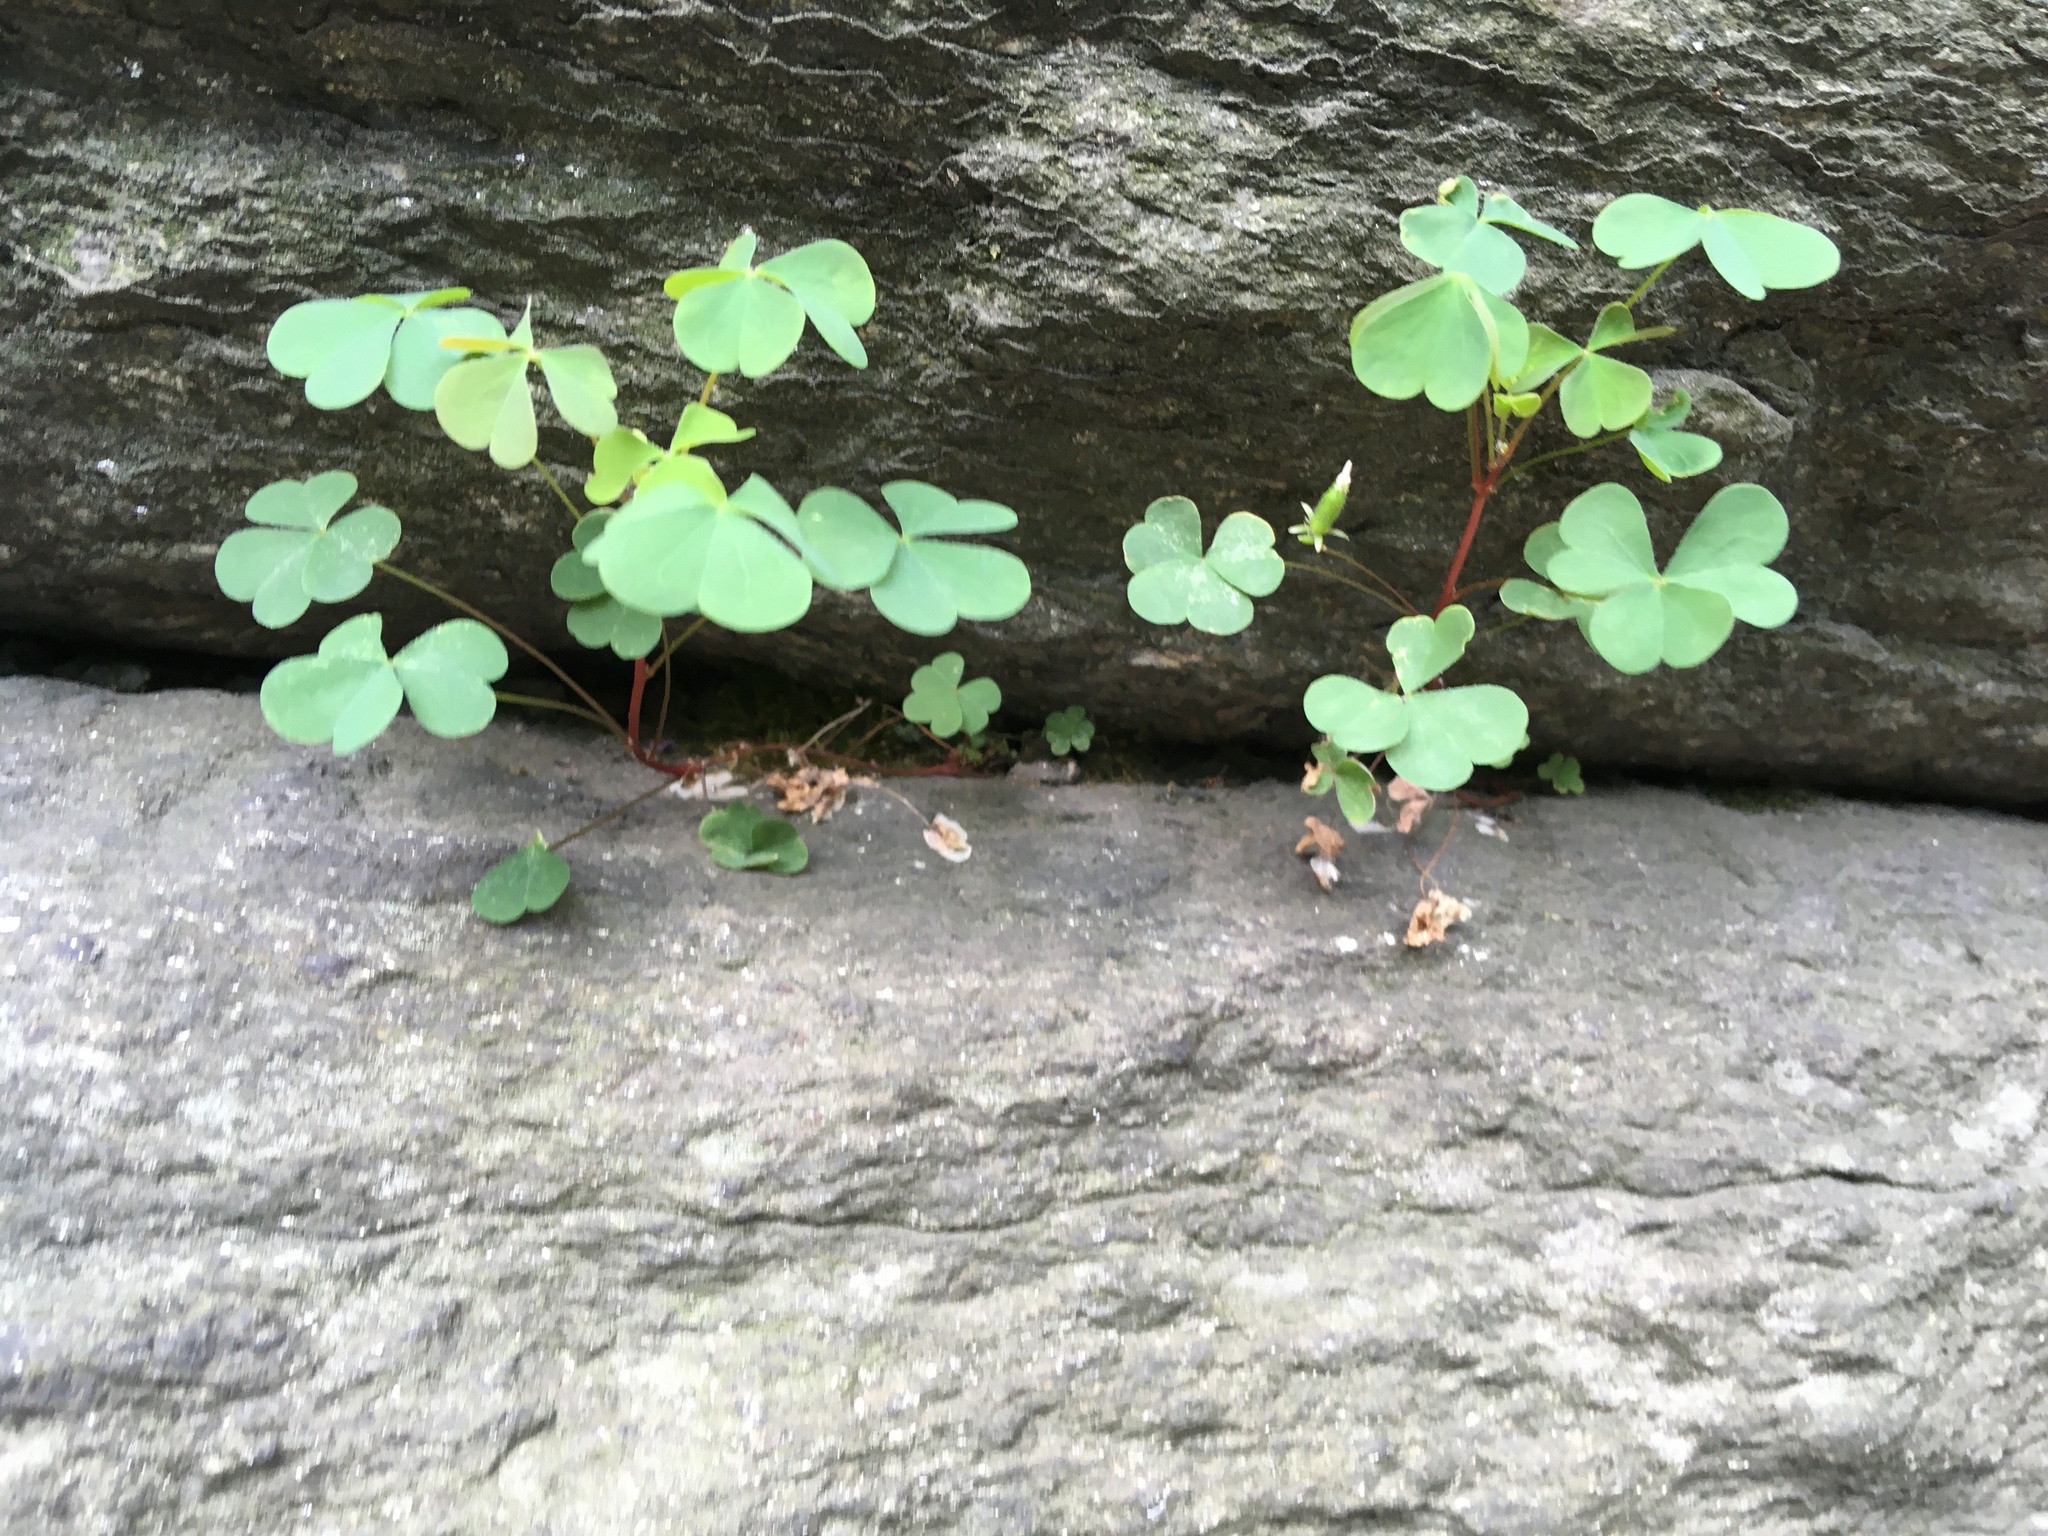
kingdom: Plantae
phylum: Tracheophyta
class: Magnoliopsida
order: Oxalidales
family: Oxalidaceae
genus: Oxalis
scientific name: Oxalis corniculata
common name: Procumbent yellow-sorrel
